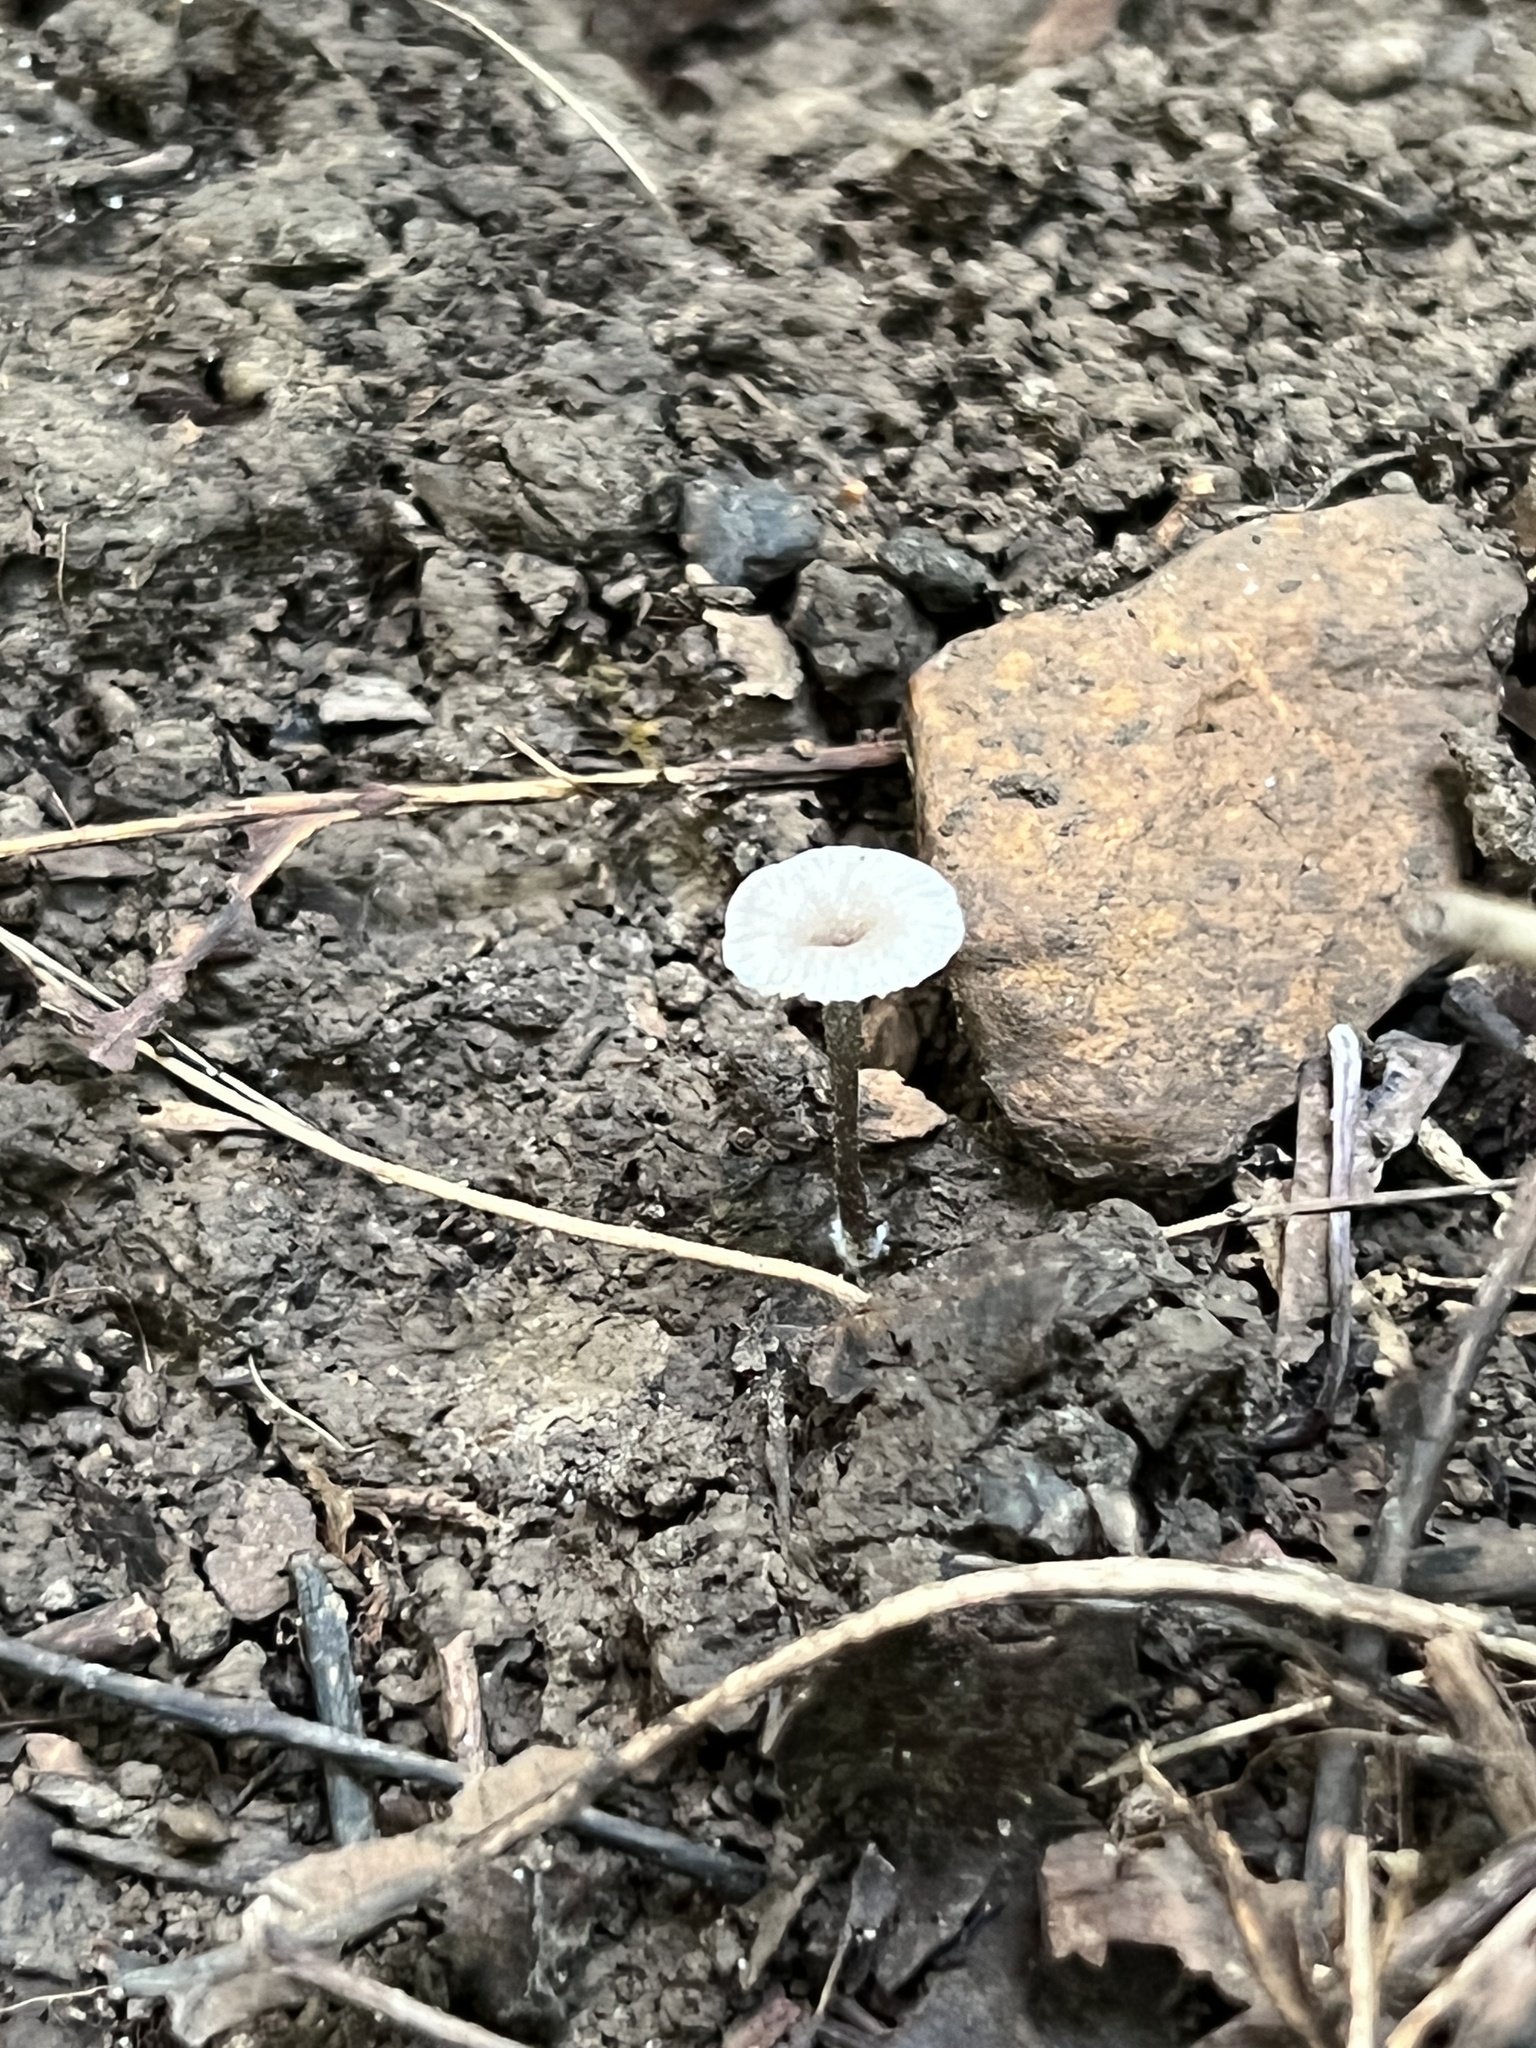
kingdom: Fungi
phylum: Basidiomycota
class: Agaricomycetes
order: Agaricales
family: Entolomataceae
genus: Entoloma
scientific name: Entoloma perumbilicatum
